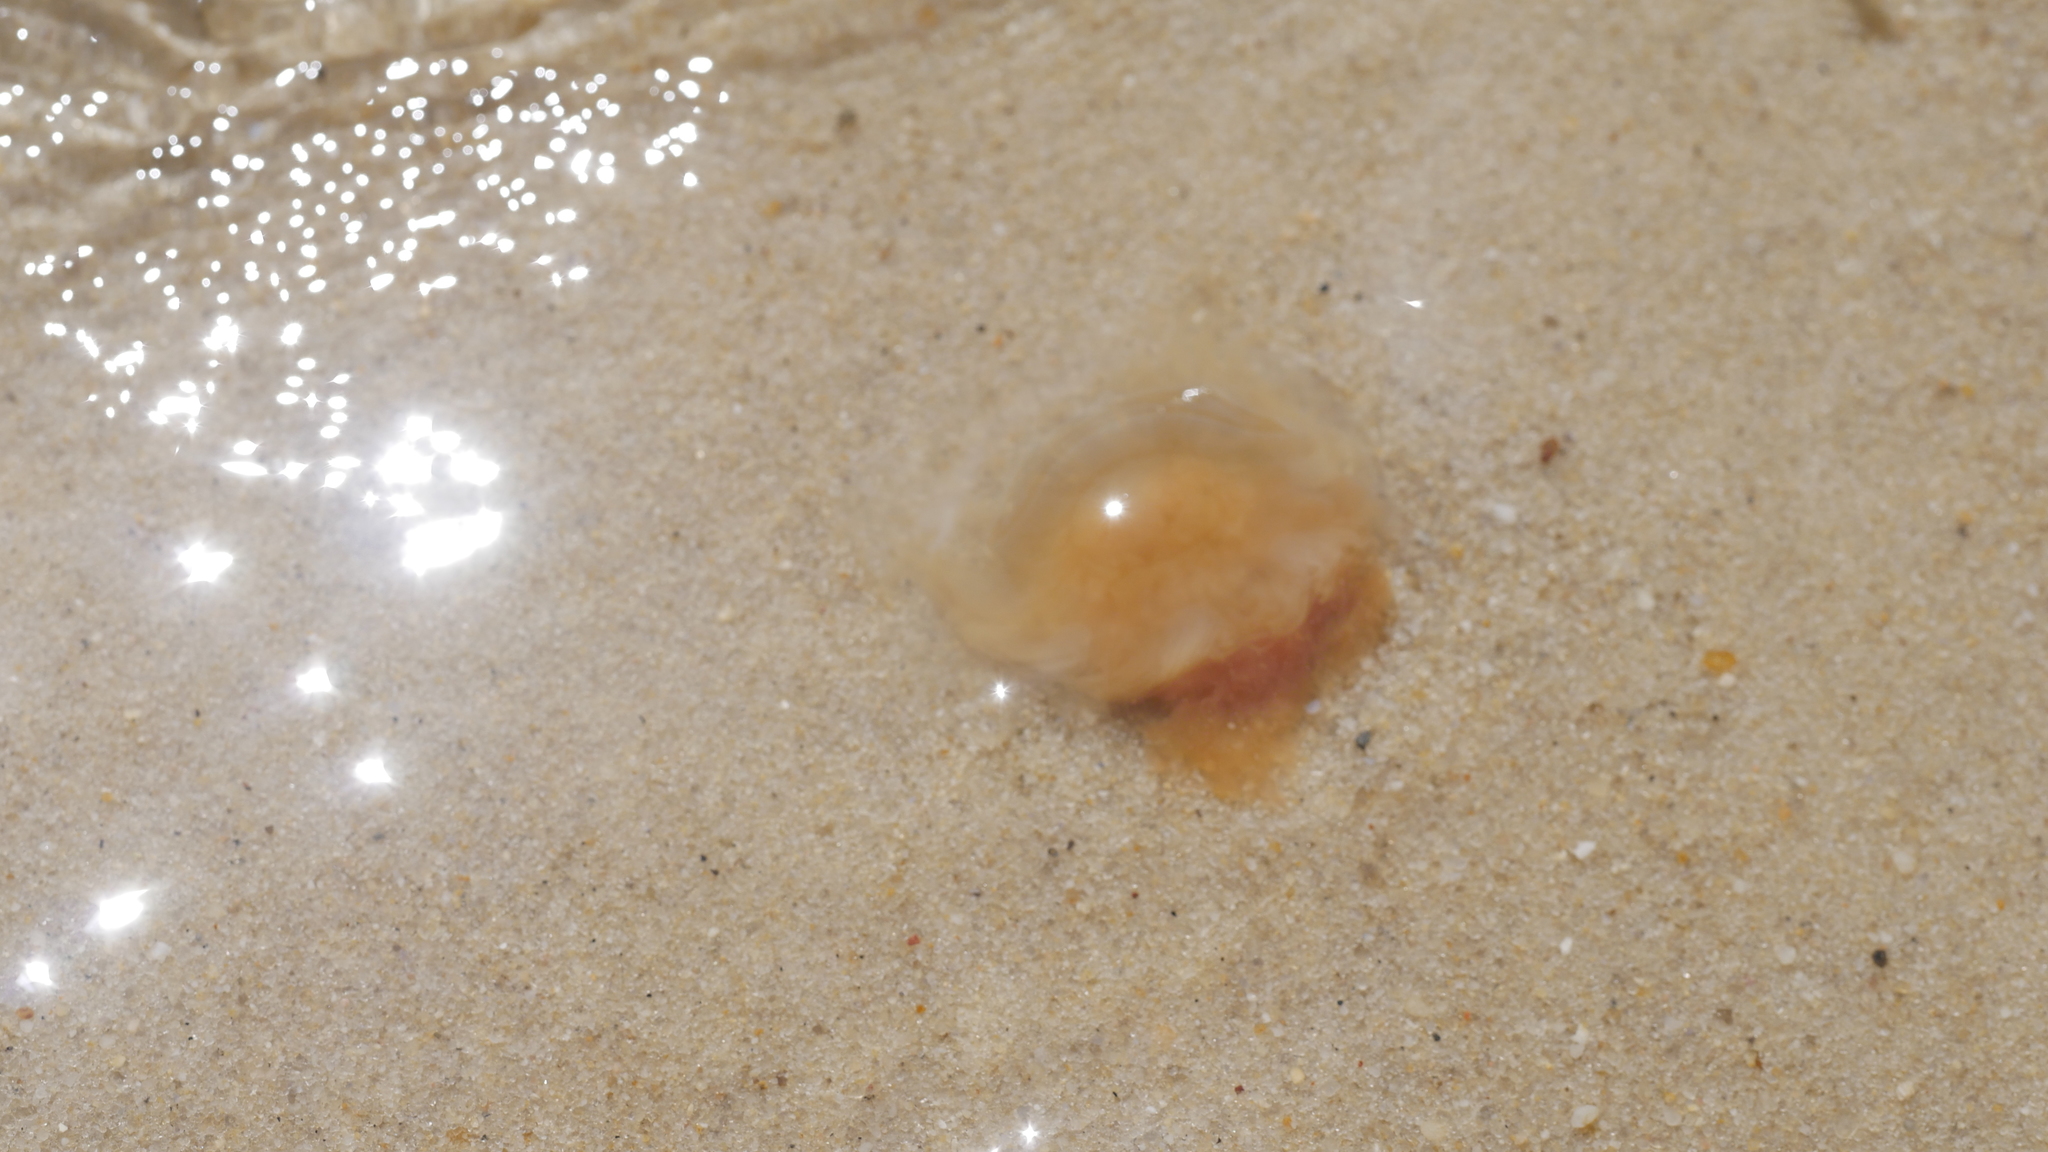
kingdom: Animalia
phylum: Cnidaria
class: Scyphozoa
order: Semaeostomeae
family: Cyaneidae
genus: Cyanea
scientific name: Cyanea fulva
